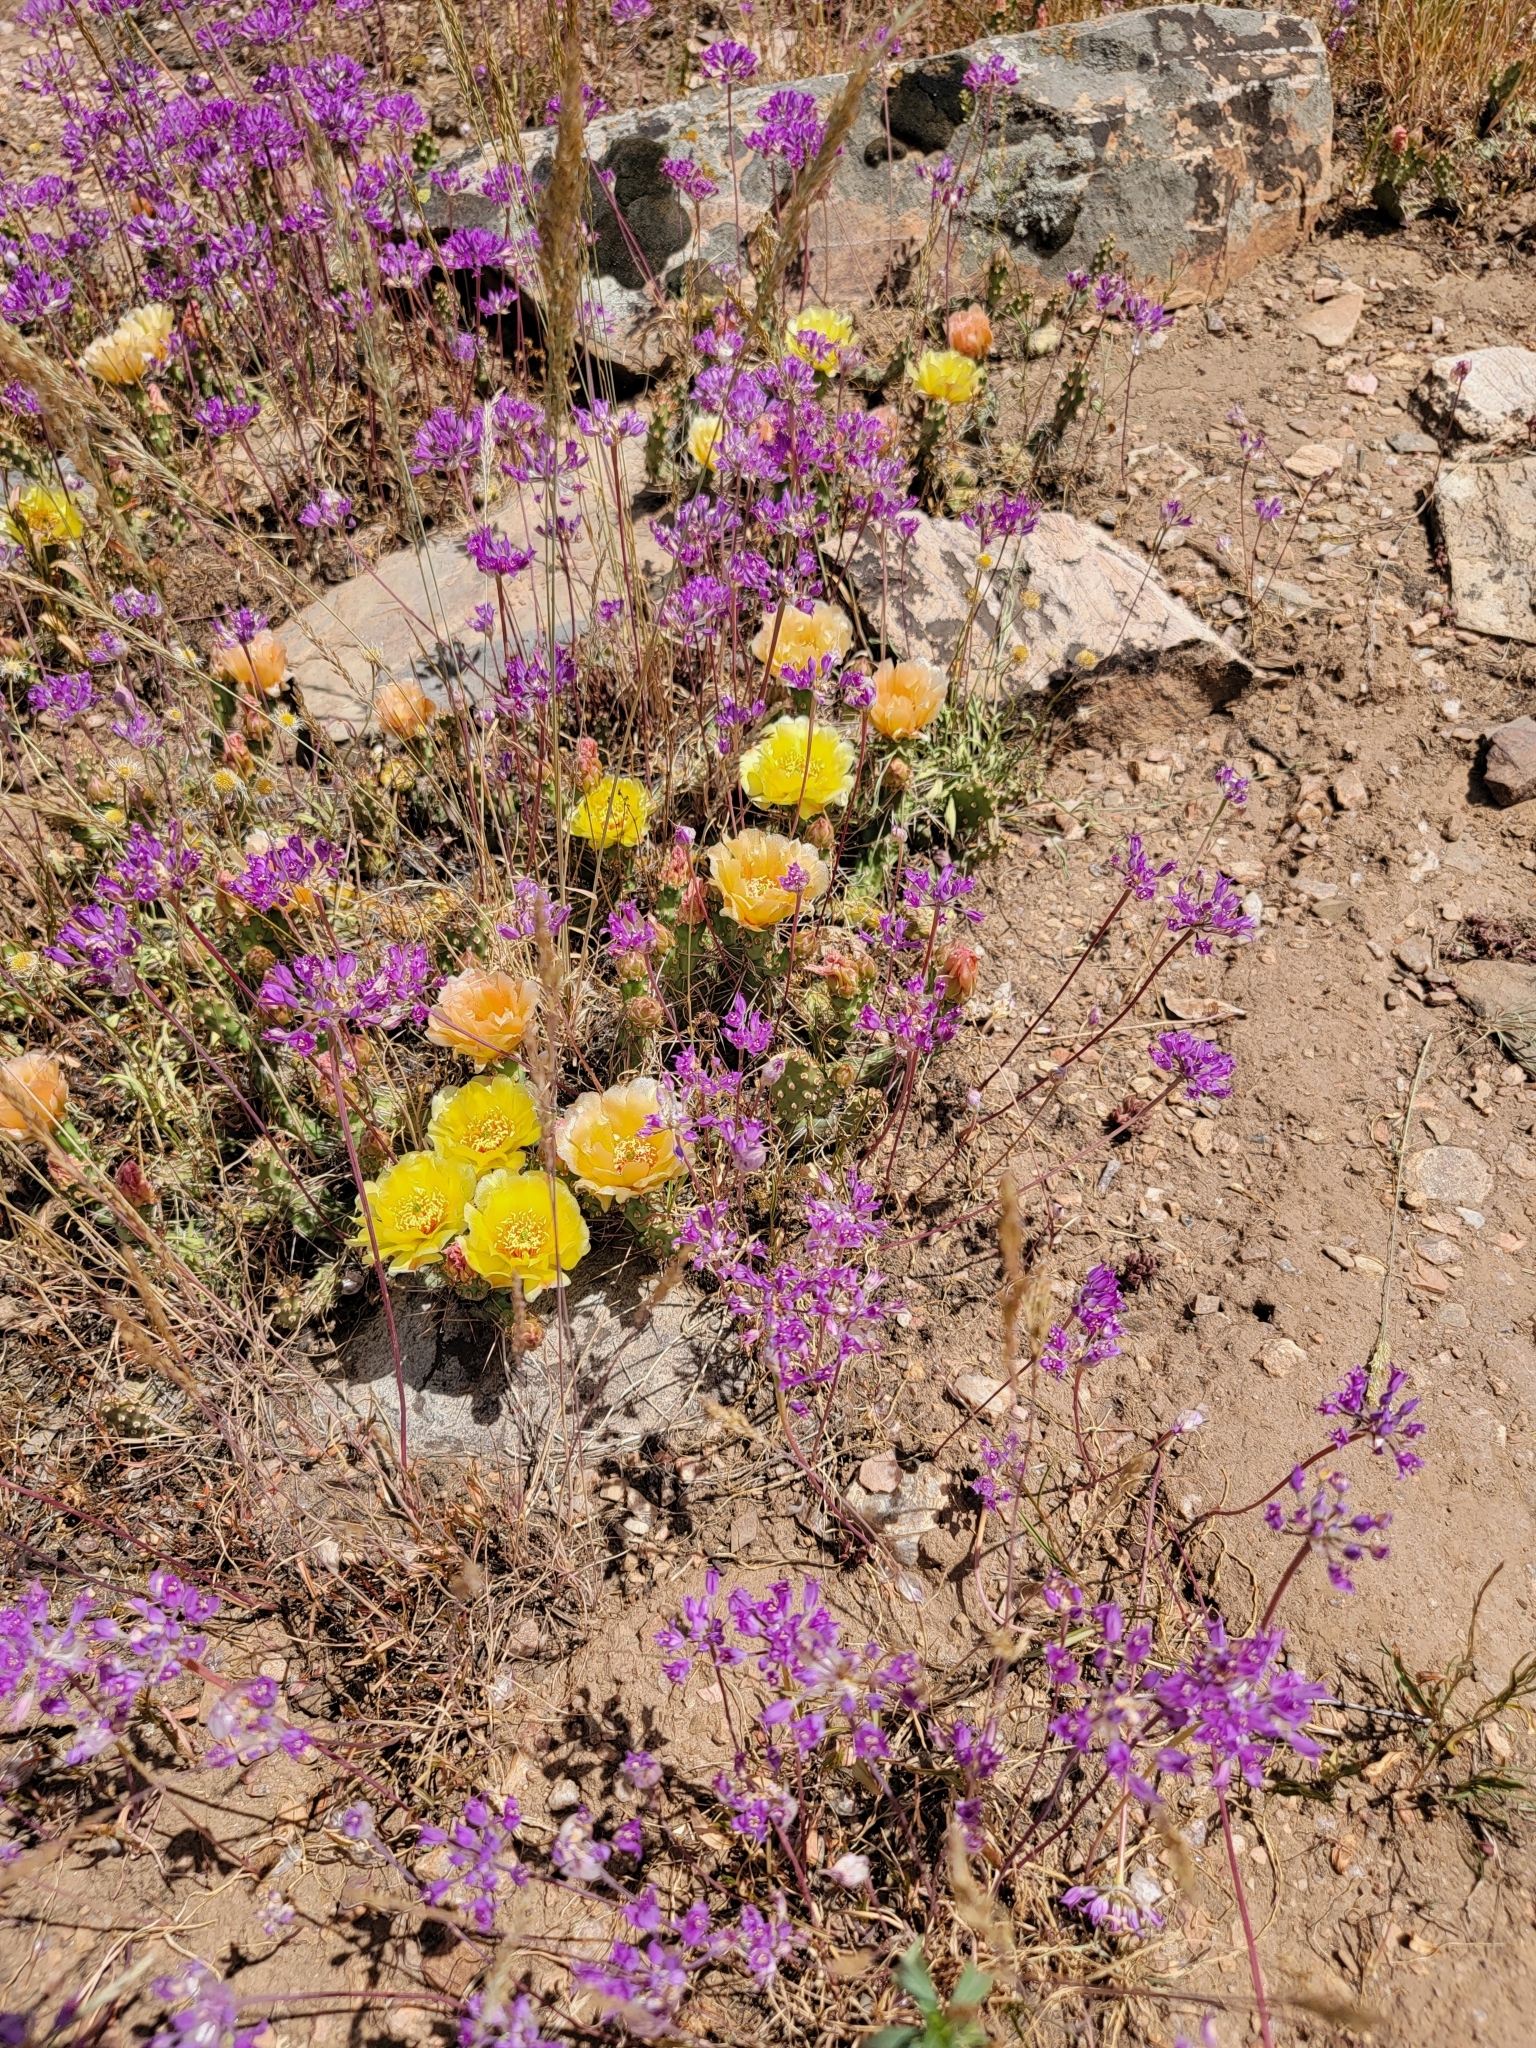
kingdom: Plantae
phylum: Tracheophyta
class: Liliopsida
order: Asparagales
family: Amaryllidaceae
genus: Allium
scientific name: Allium acuminatum
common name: Hooker's onion
